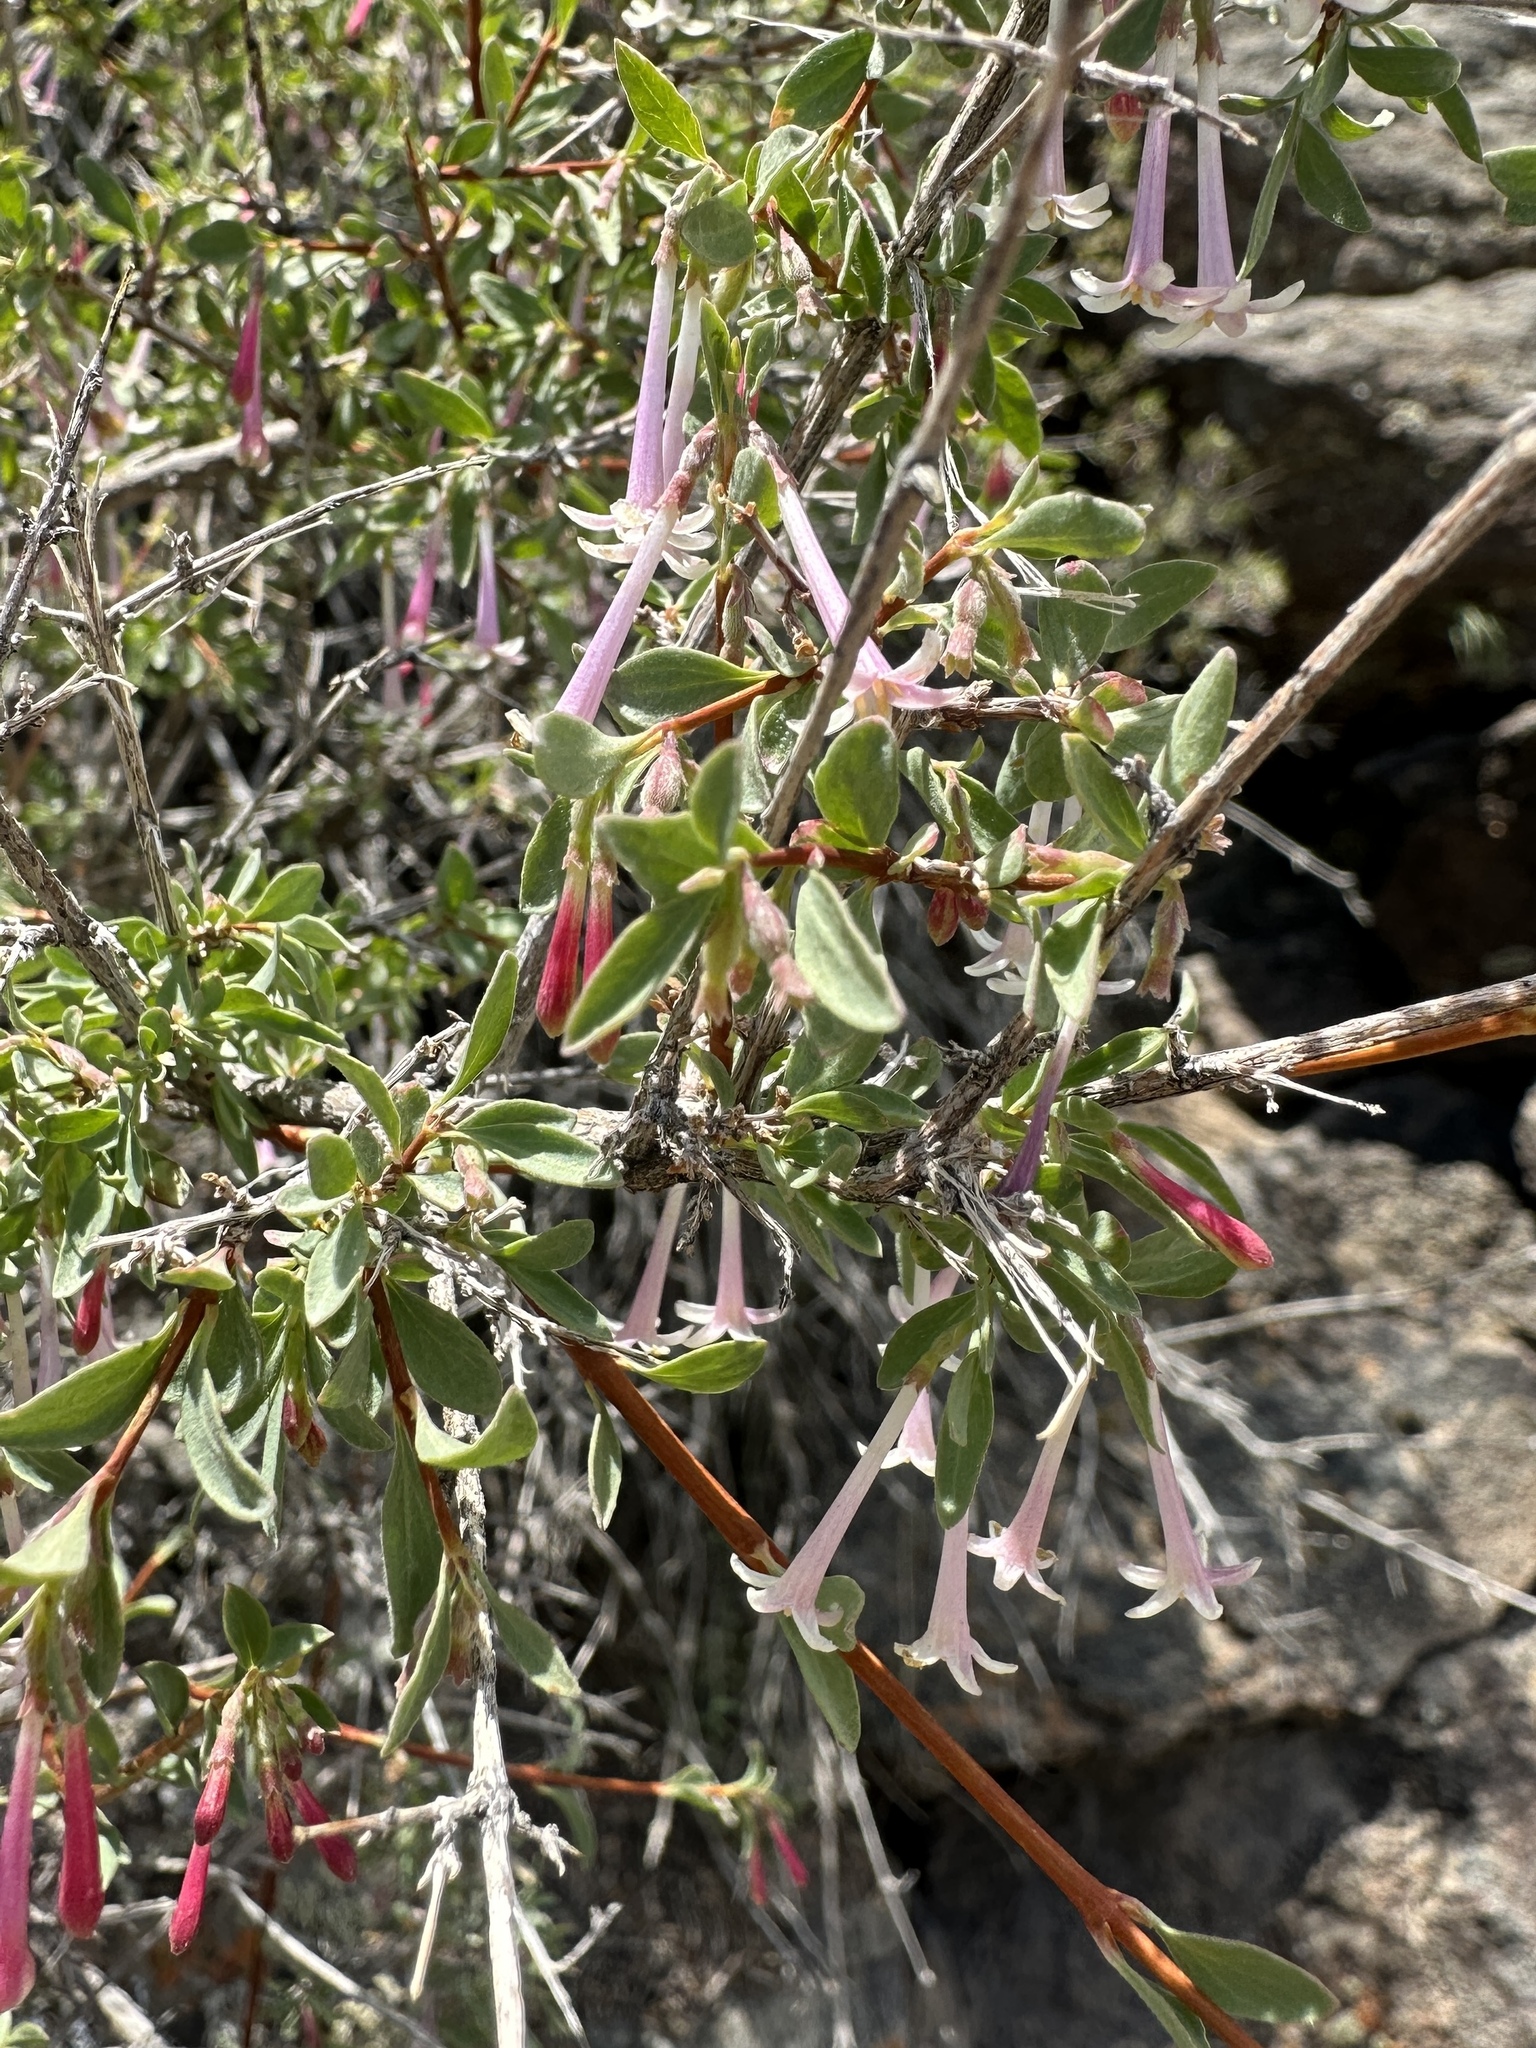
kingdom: Plantae
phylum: Tracheophyta
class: Magnoliopsida
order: Dipsacales
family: Caprifoliaceae
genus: Symphoricarpos
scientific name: Symphoricarpos longiflorus
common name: Fragrant snowberry
